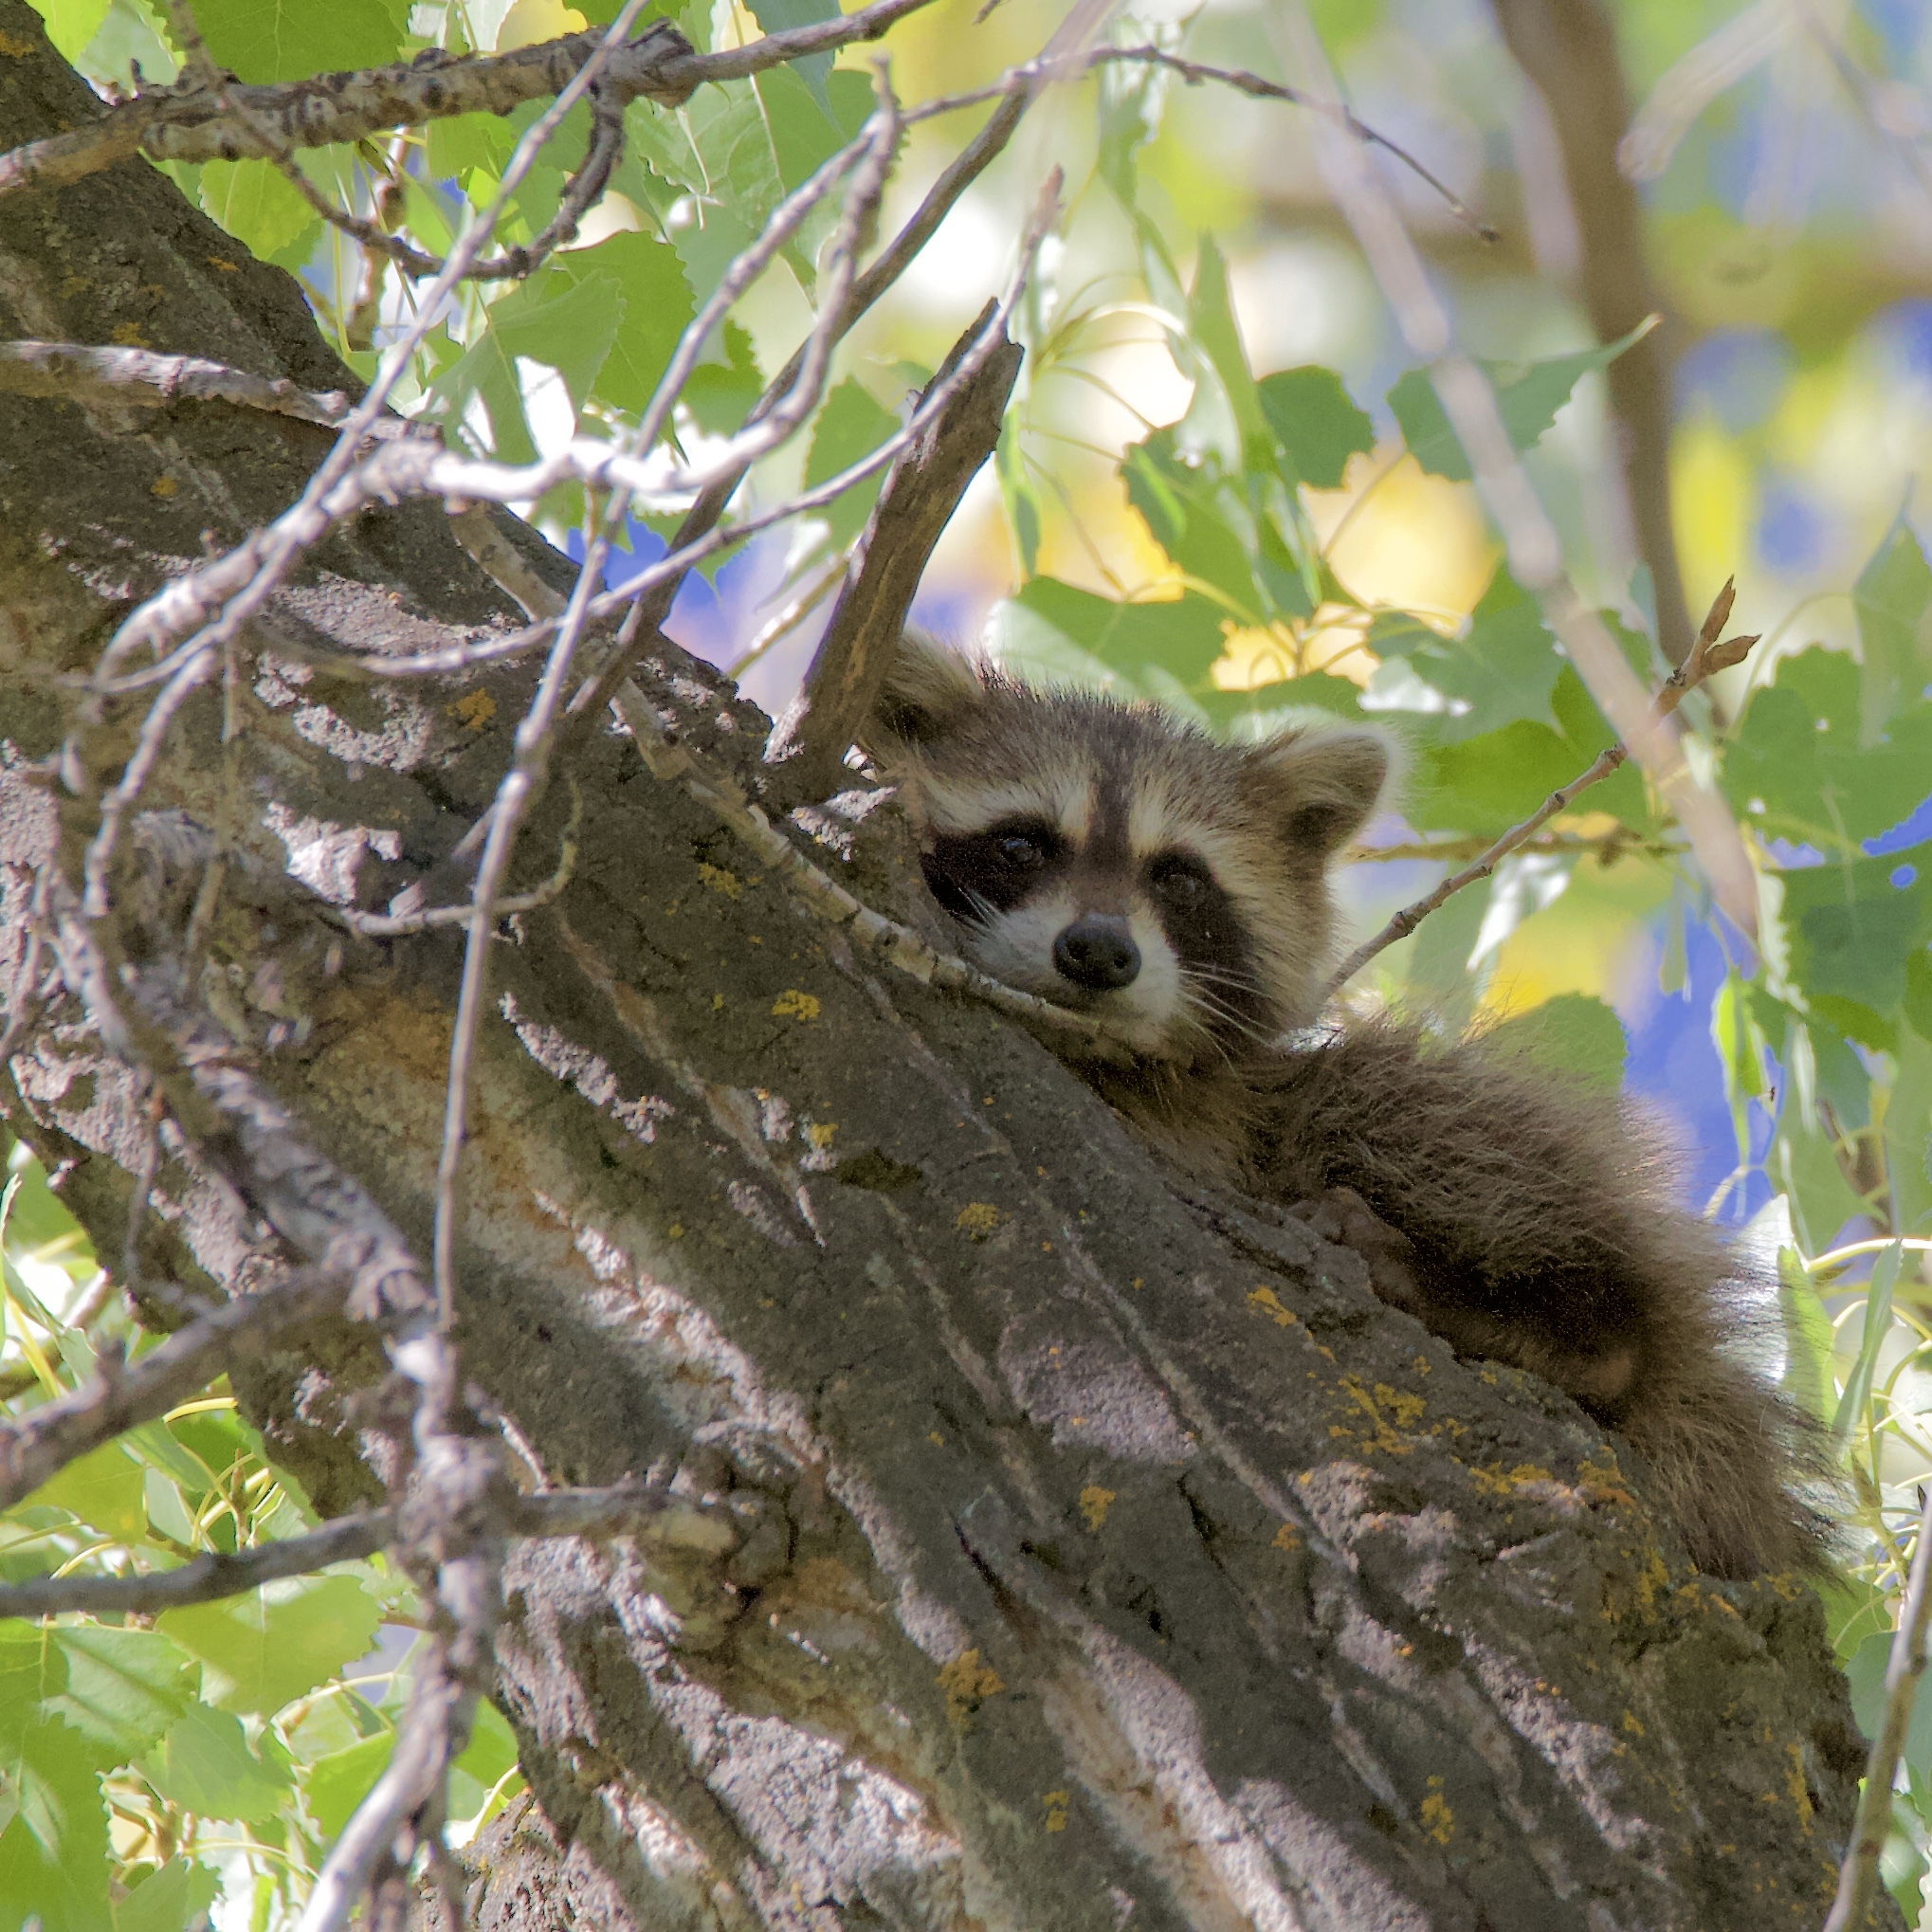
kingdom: Animalia
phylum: Chordata
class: Mammalia
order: Carnivora
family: Procyonidae
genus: Procyon
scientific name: Procyon lotor
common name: Raccoon
